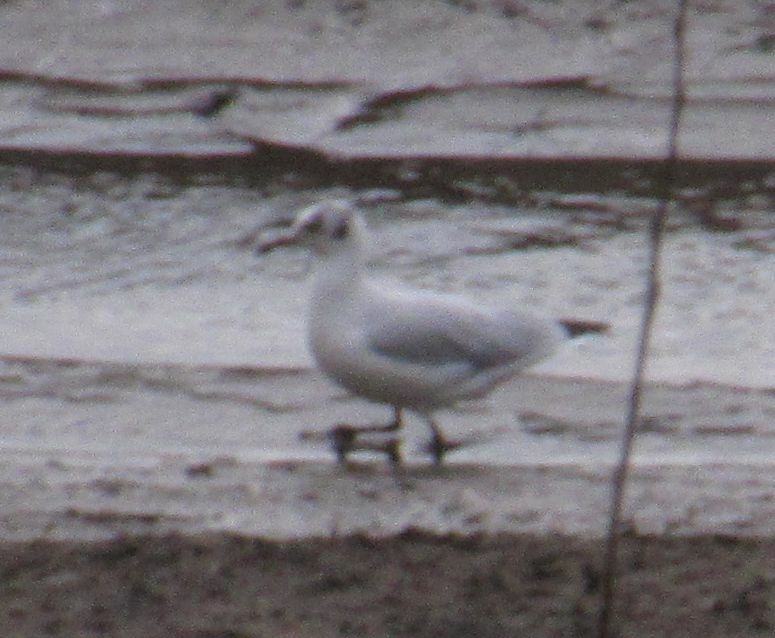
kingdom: Animalia
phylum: Chordata
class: Aves
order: Charadriiformes
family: Laridae
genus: Chroicocephalus
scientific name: Chroicocephalus ridibundus
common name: Black-headed gull
